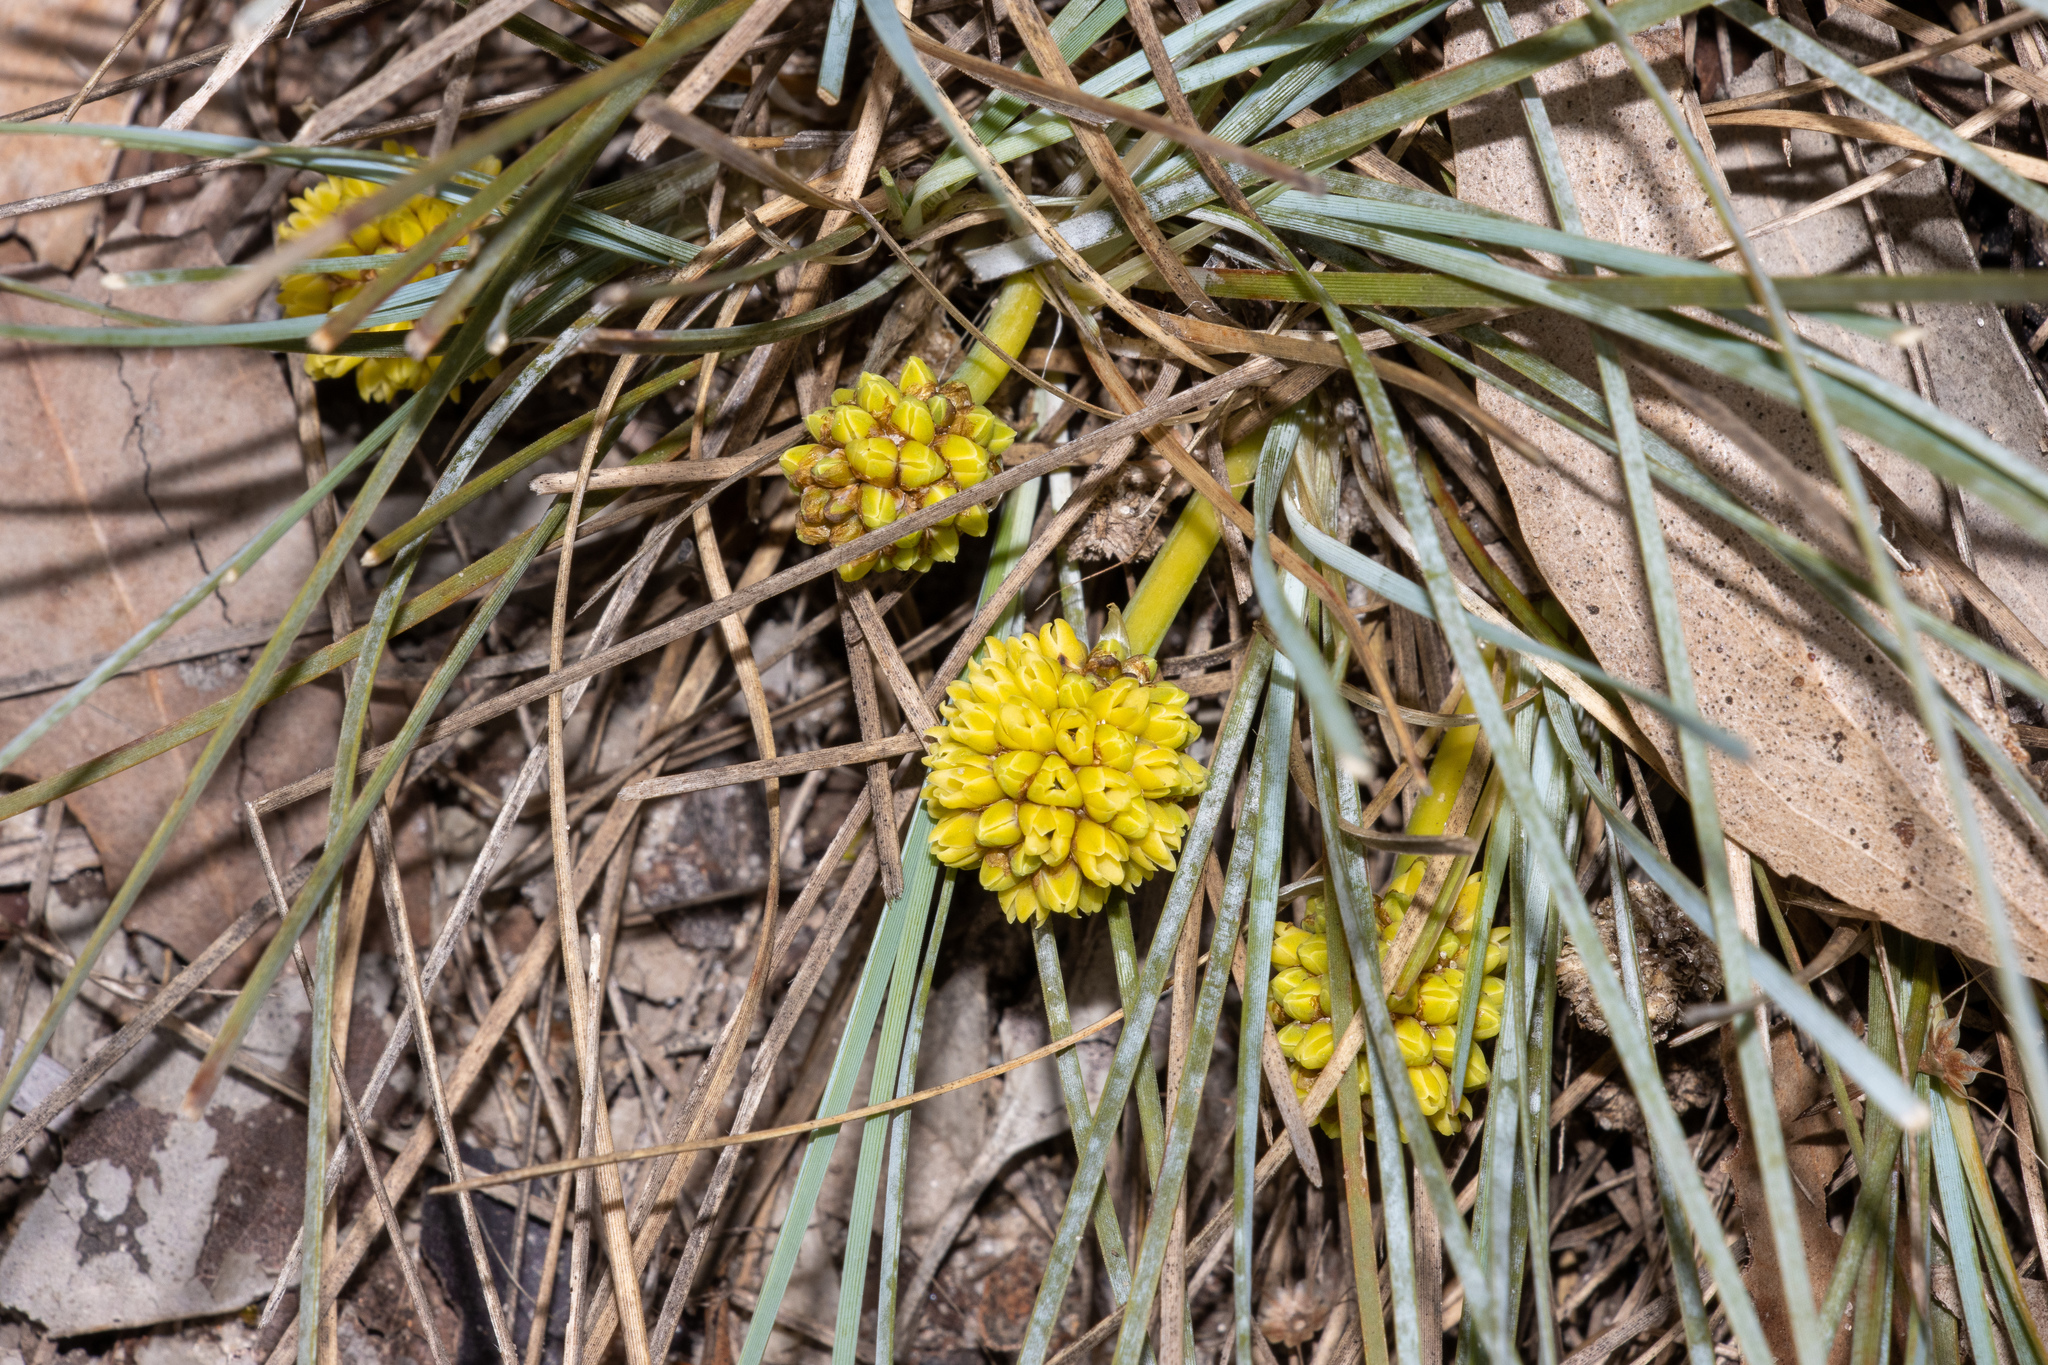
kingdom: Plantae
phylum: Tracheophyta
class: Liliopsida
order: Asparagales
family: Asparagaceae
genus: Lomandra
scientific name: Lomandra collina
